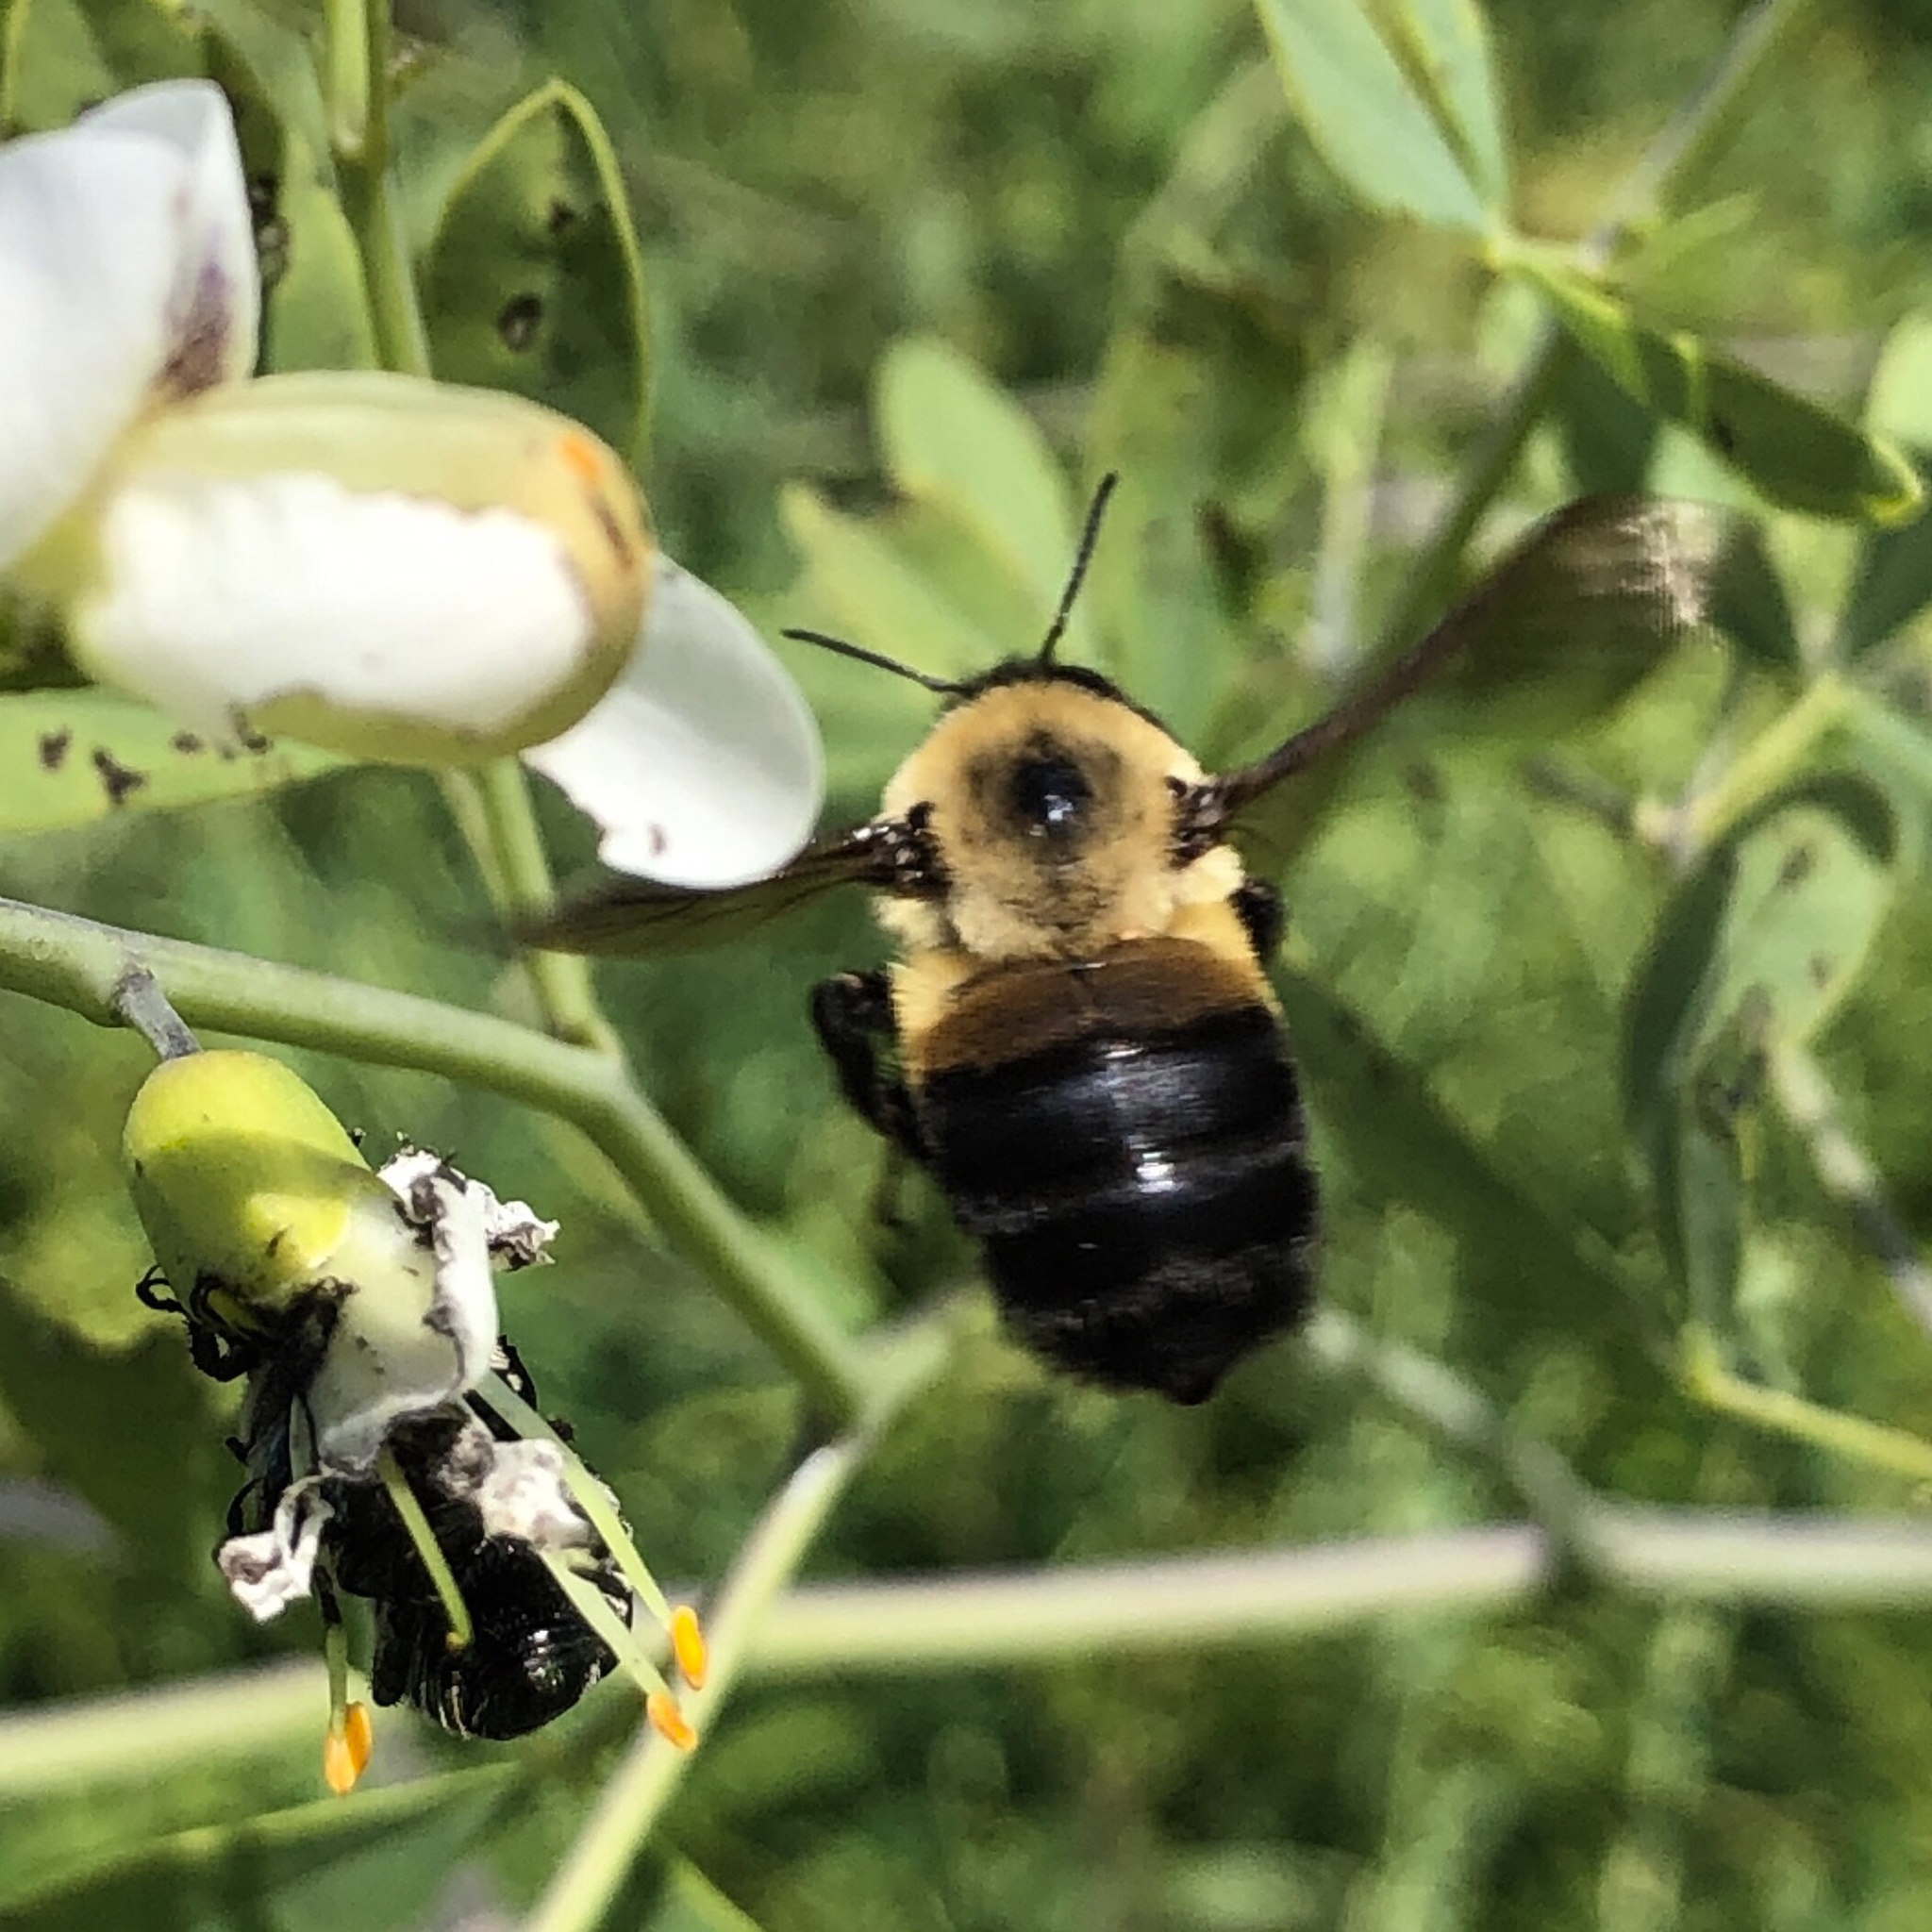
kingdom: Animalia
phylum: Arthropoda
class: Insecta
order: Hymenoptera
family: Apidae
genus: Bombus
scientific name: Bombus griseocollis
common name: Brown-belted bumble bee
